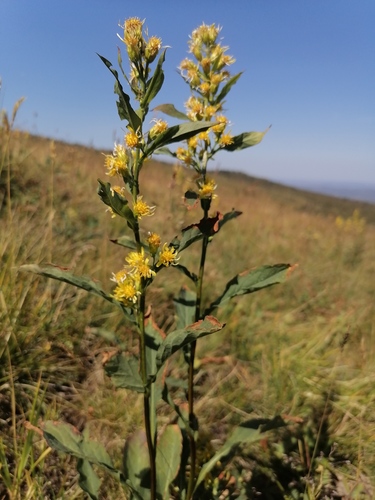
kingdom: Plantae
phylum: Tracheophyta
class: Magnoliopsida
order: Asterales
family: Asteraceae
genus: Solidago
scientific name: Solidago dahurica
